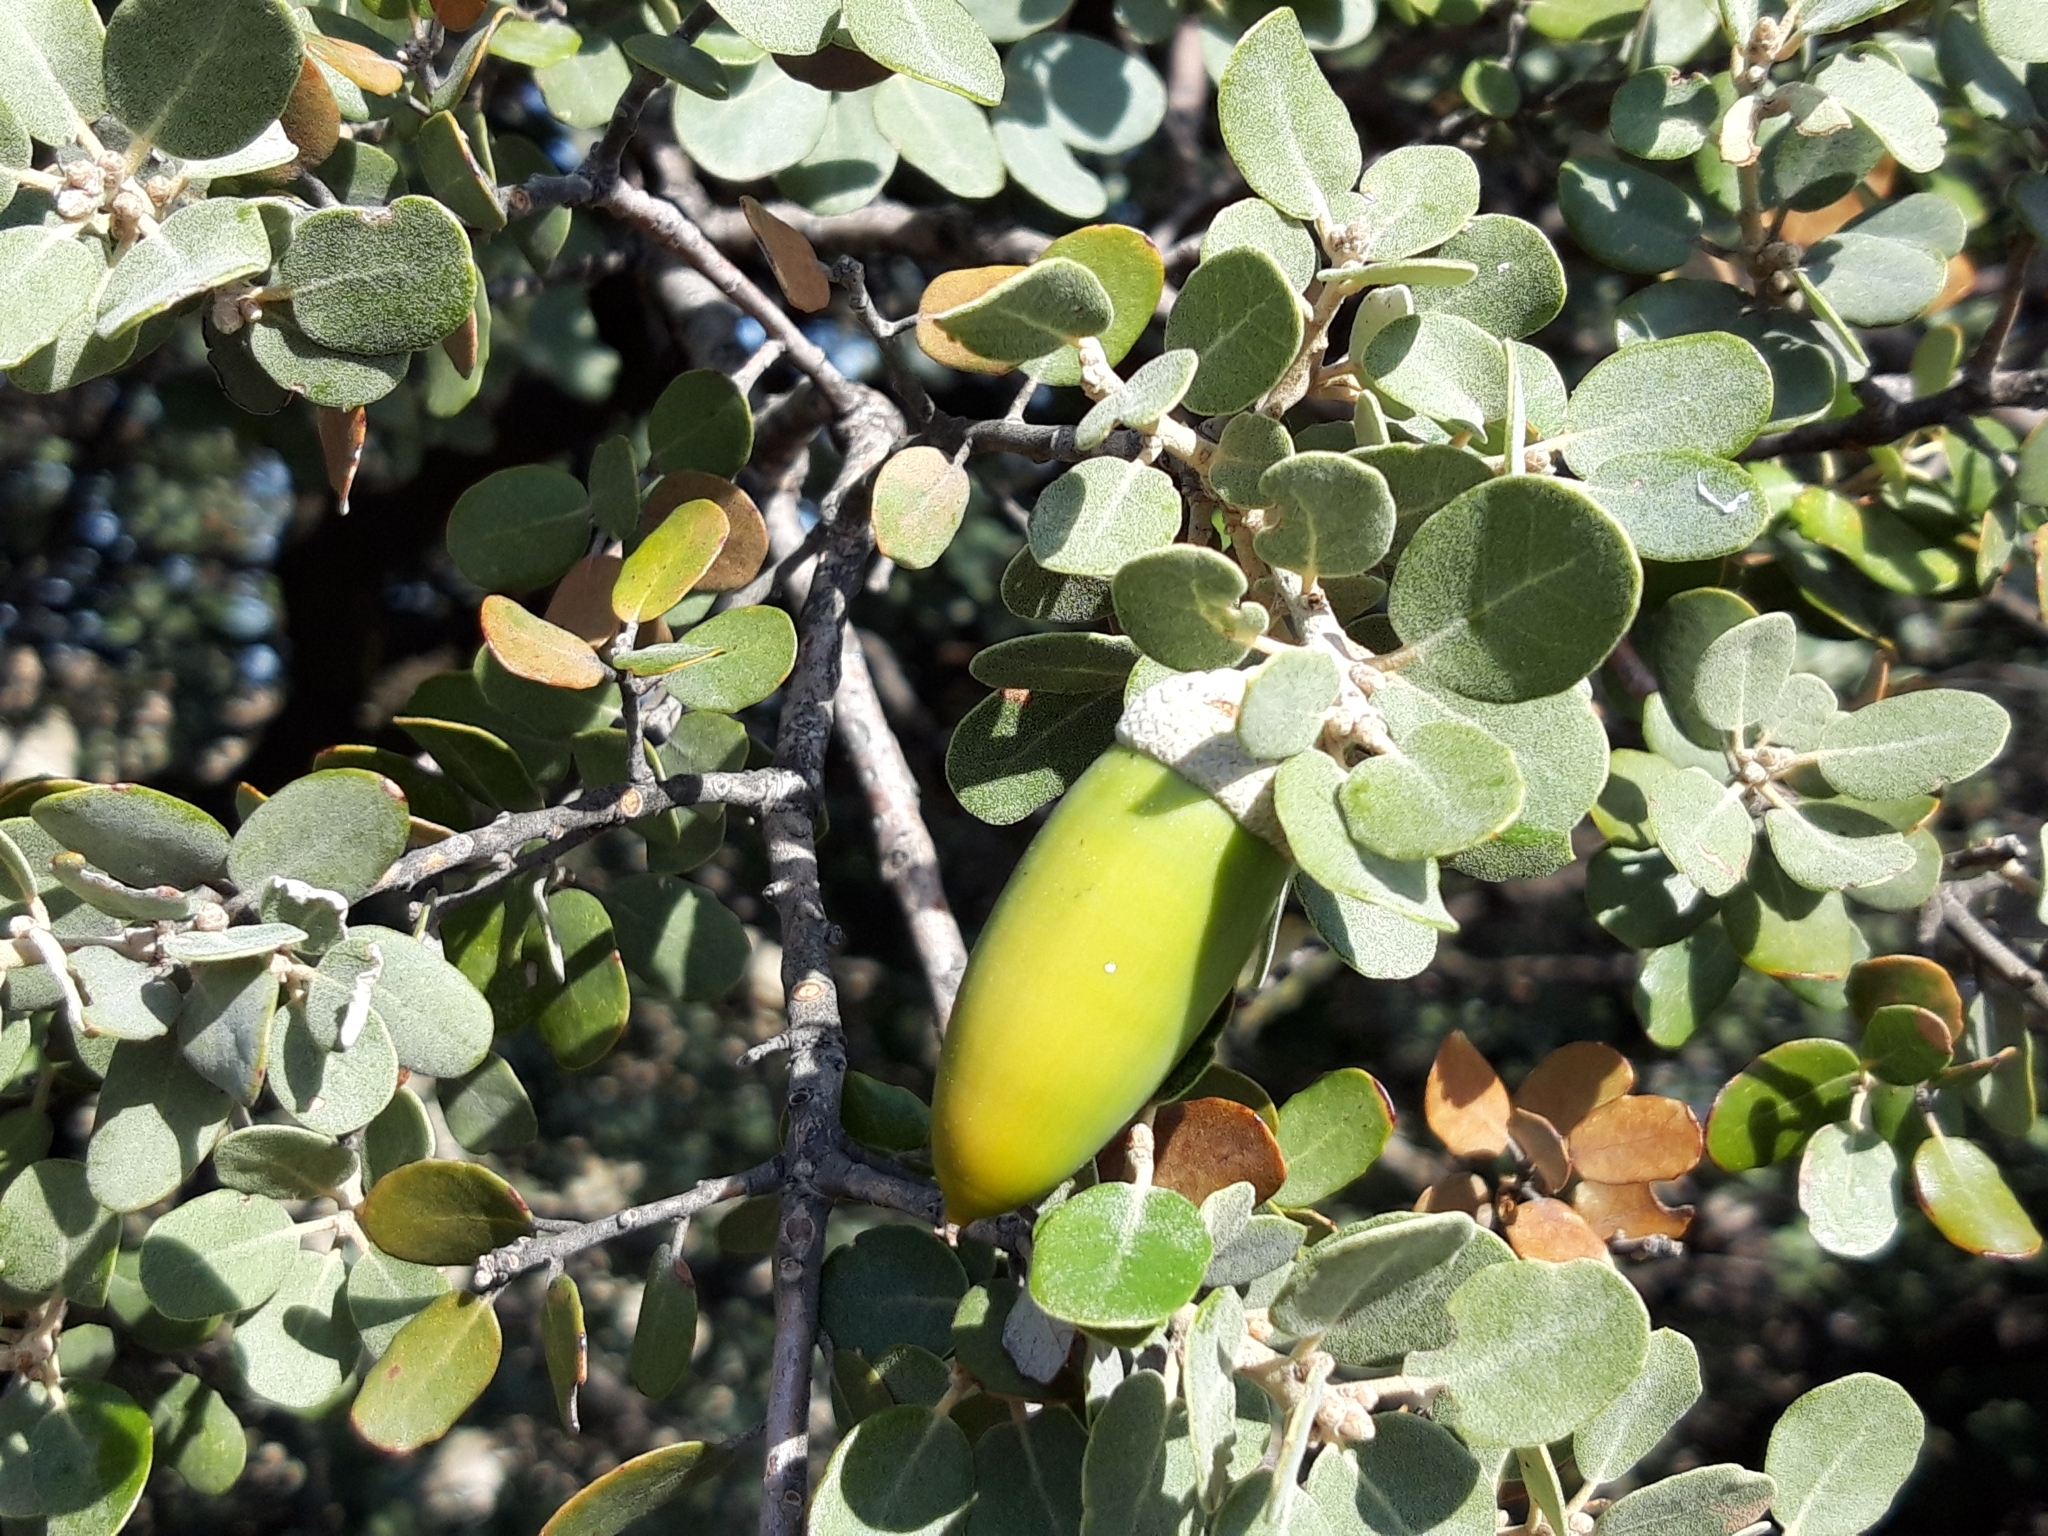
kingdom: Plantae
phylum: Tracheophyta
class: Magnoliopsida
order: Fagales
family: Fagaceae
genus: Quercus
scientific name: Quercus rotundifolia
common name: Holm oak
